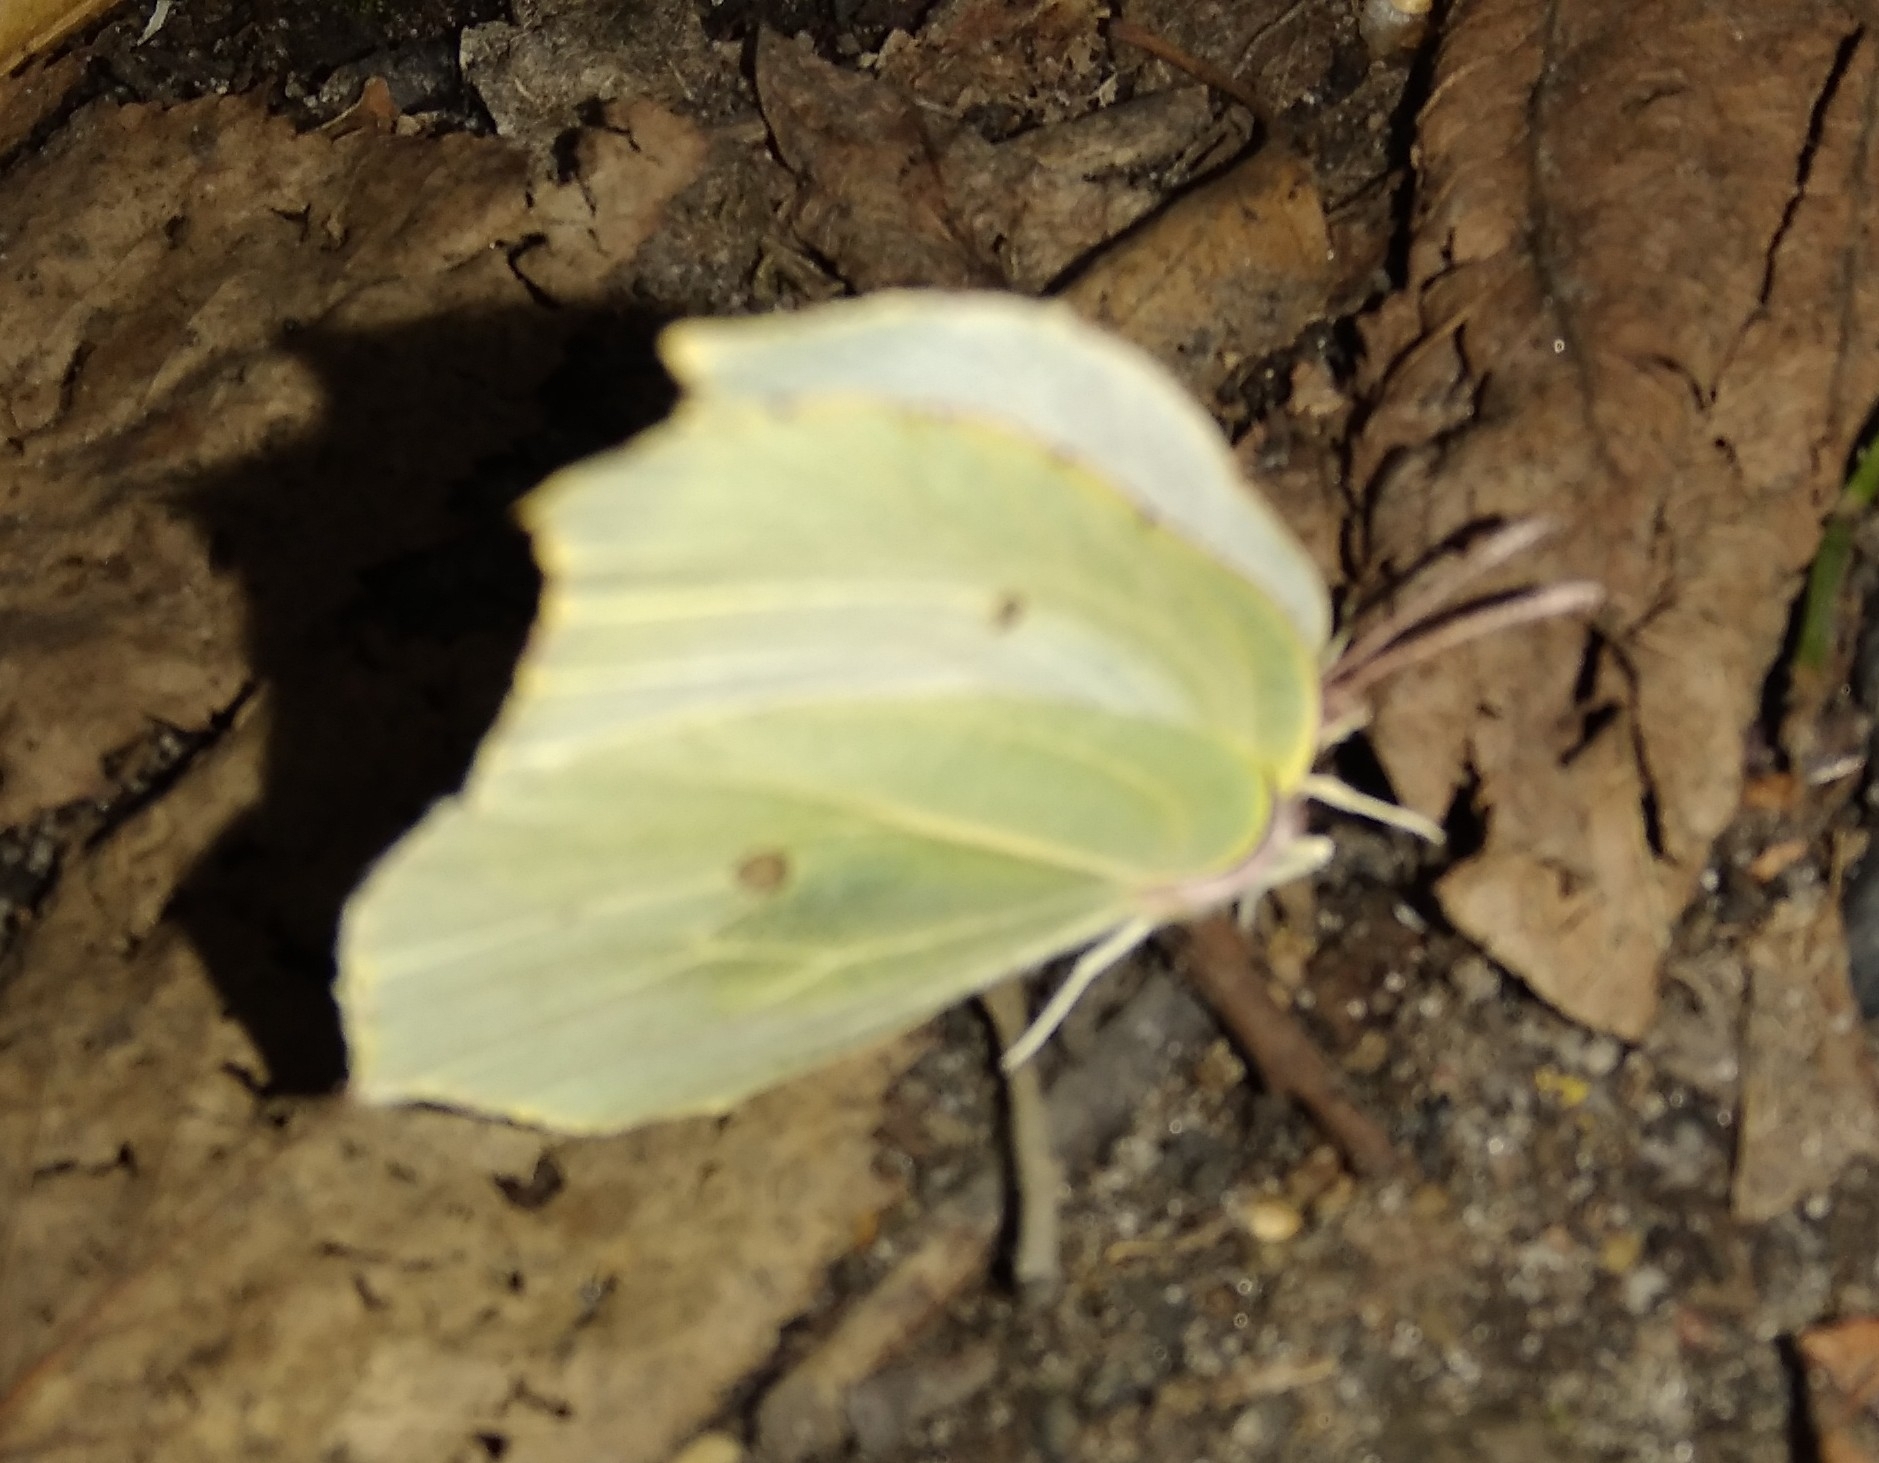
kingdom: Animalia
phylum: Arthropoda
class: Insecta
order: Lepidoptera
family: Pieridae
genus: Gonepteryx
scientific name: Gonepteryx rhamni
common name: Brimstone
